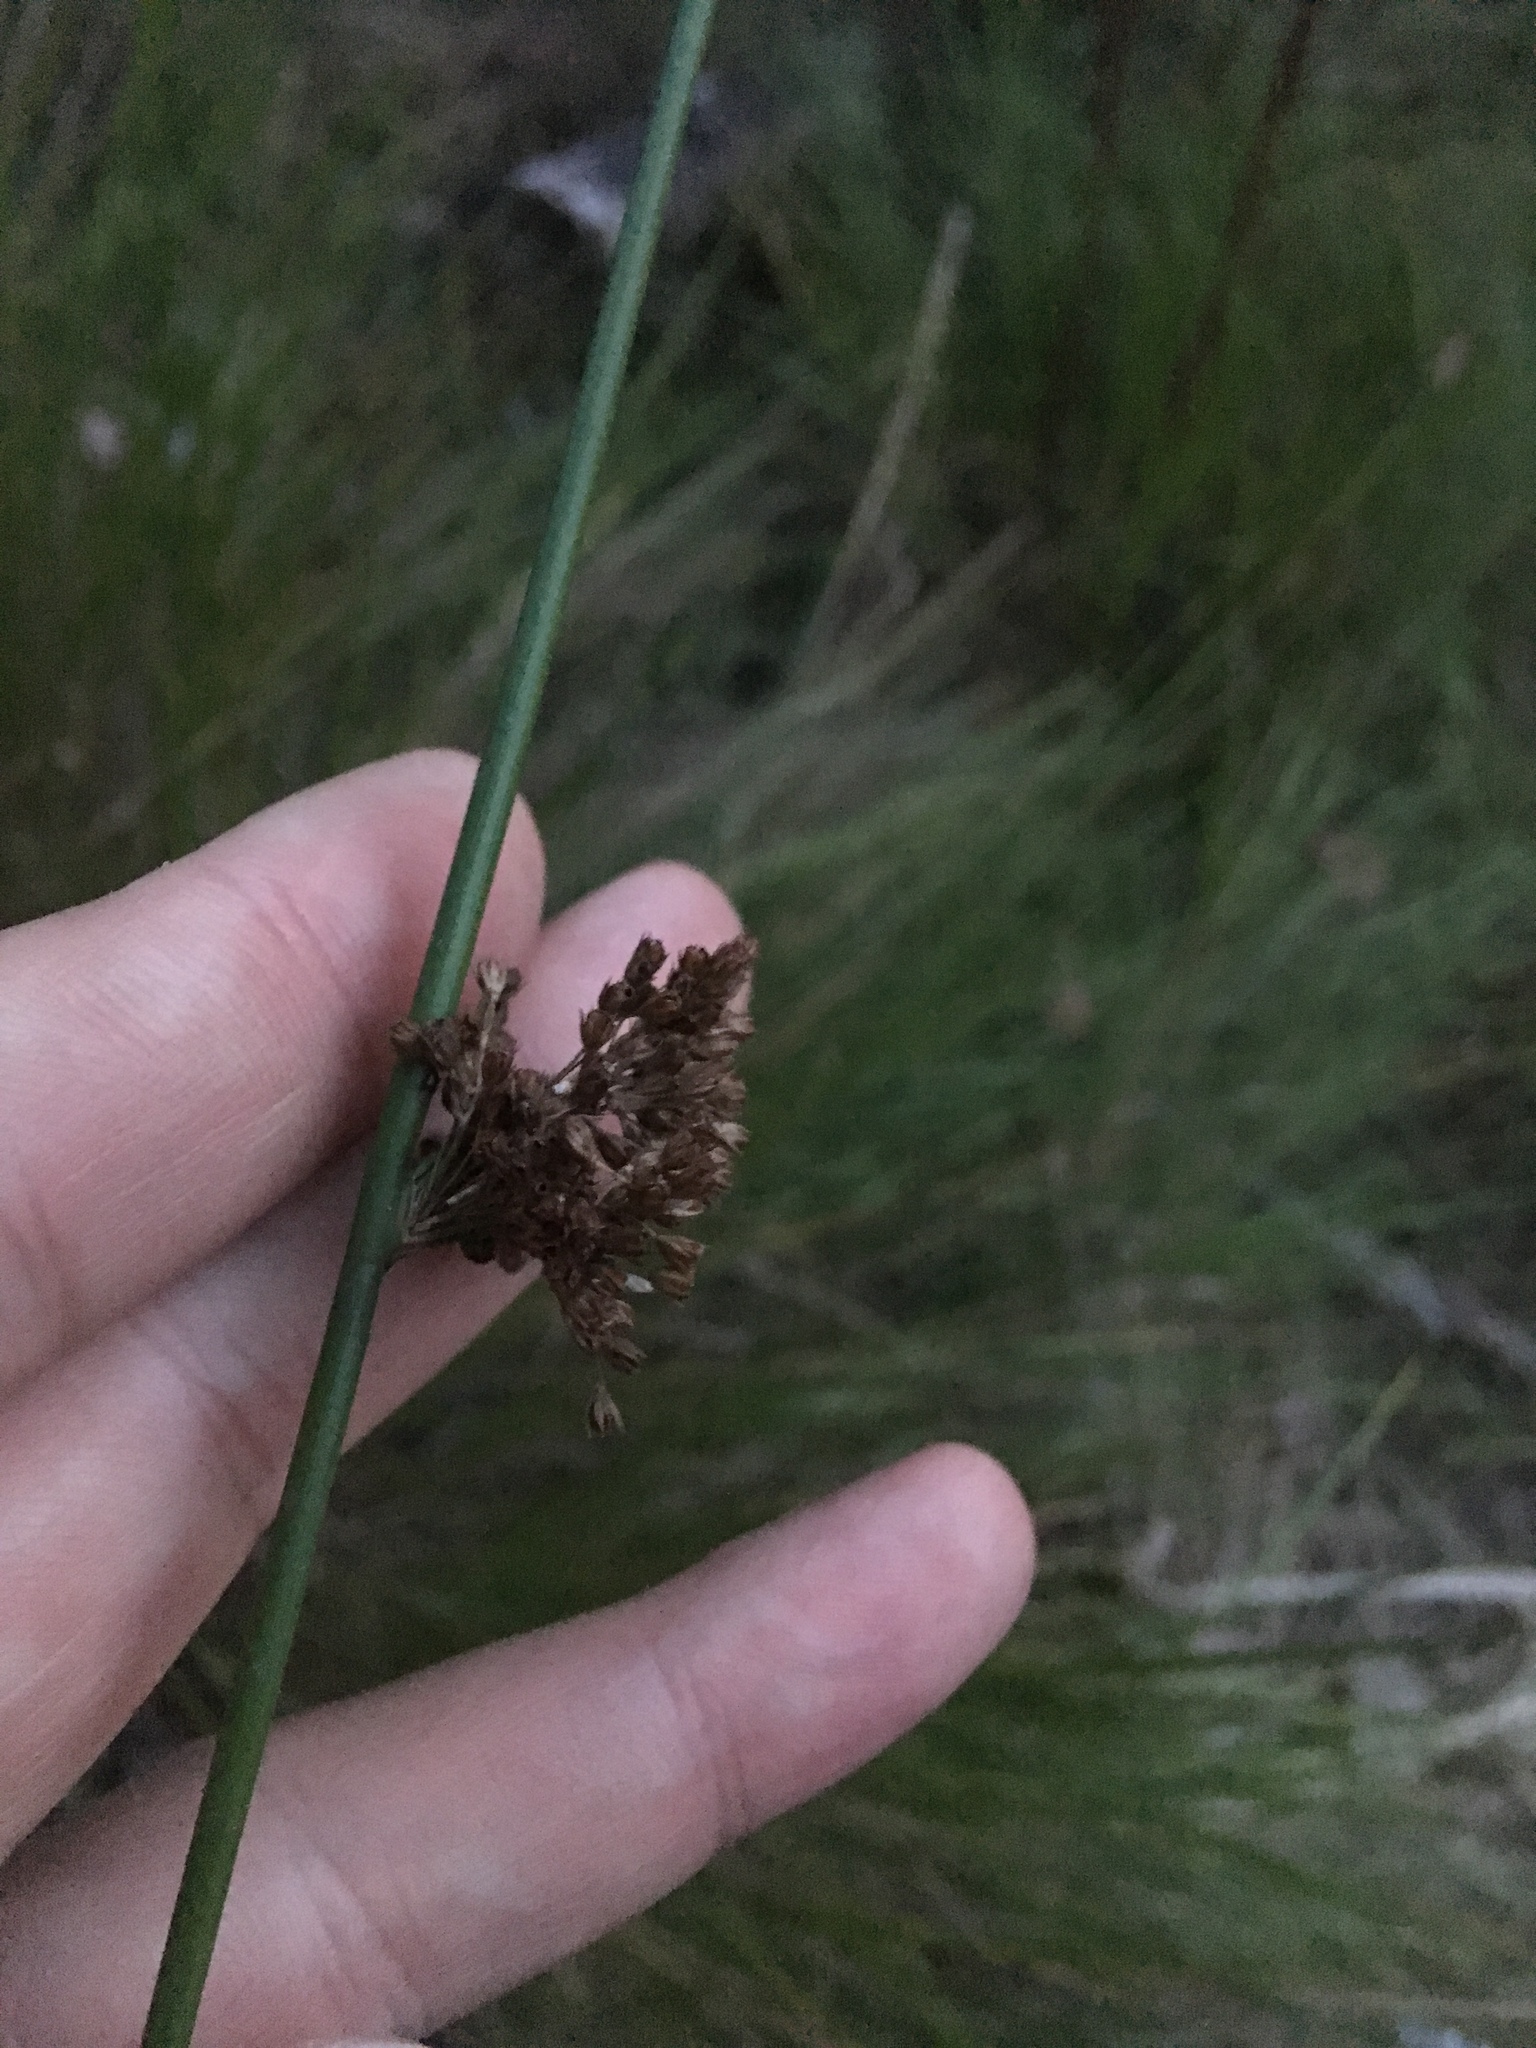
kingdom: Plantae
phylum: Tracheophyta
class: Liliopsida
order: Poales
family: Juncaceae
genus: Juncus
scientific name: Juncus effusus
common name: Soft rush
